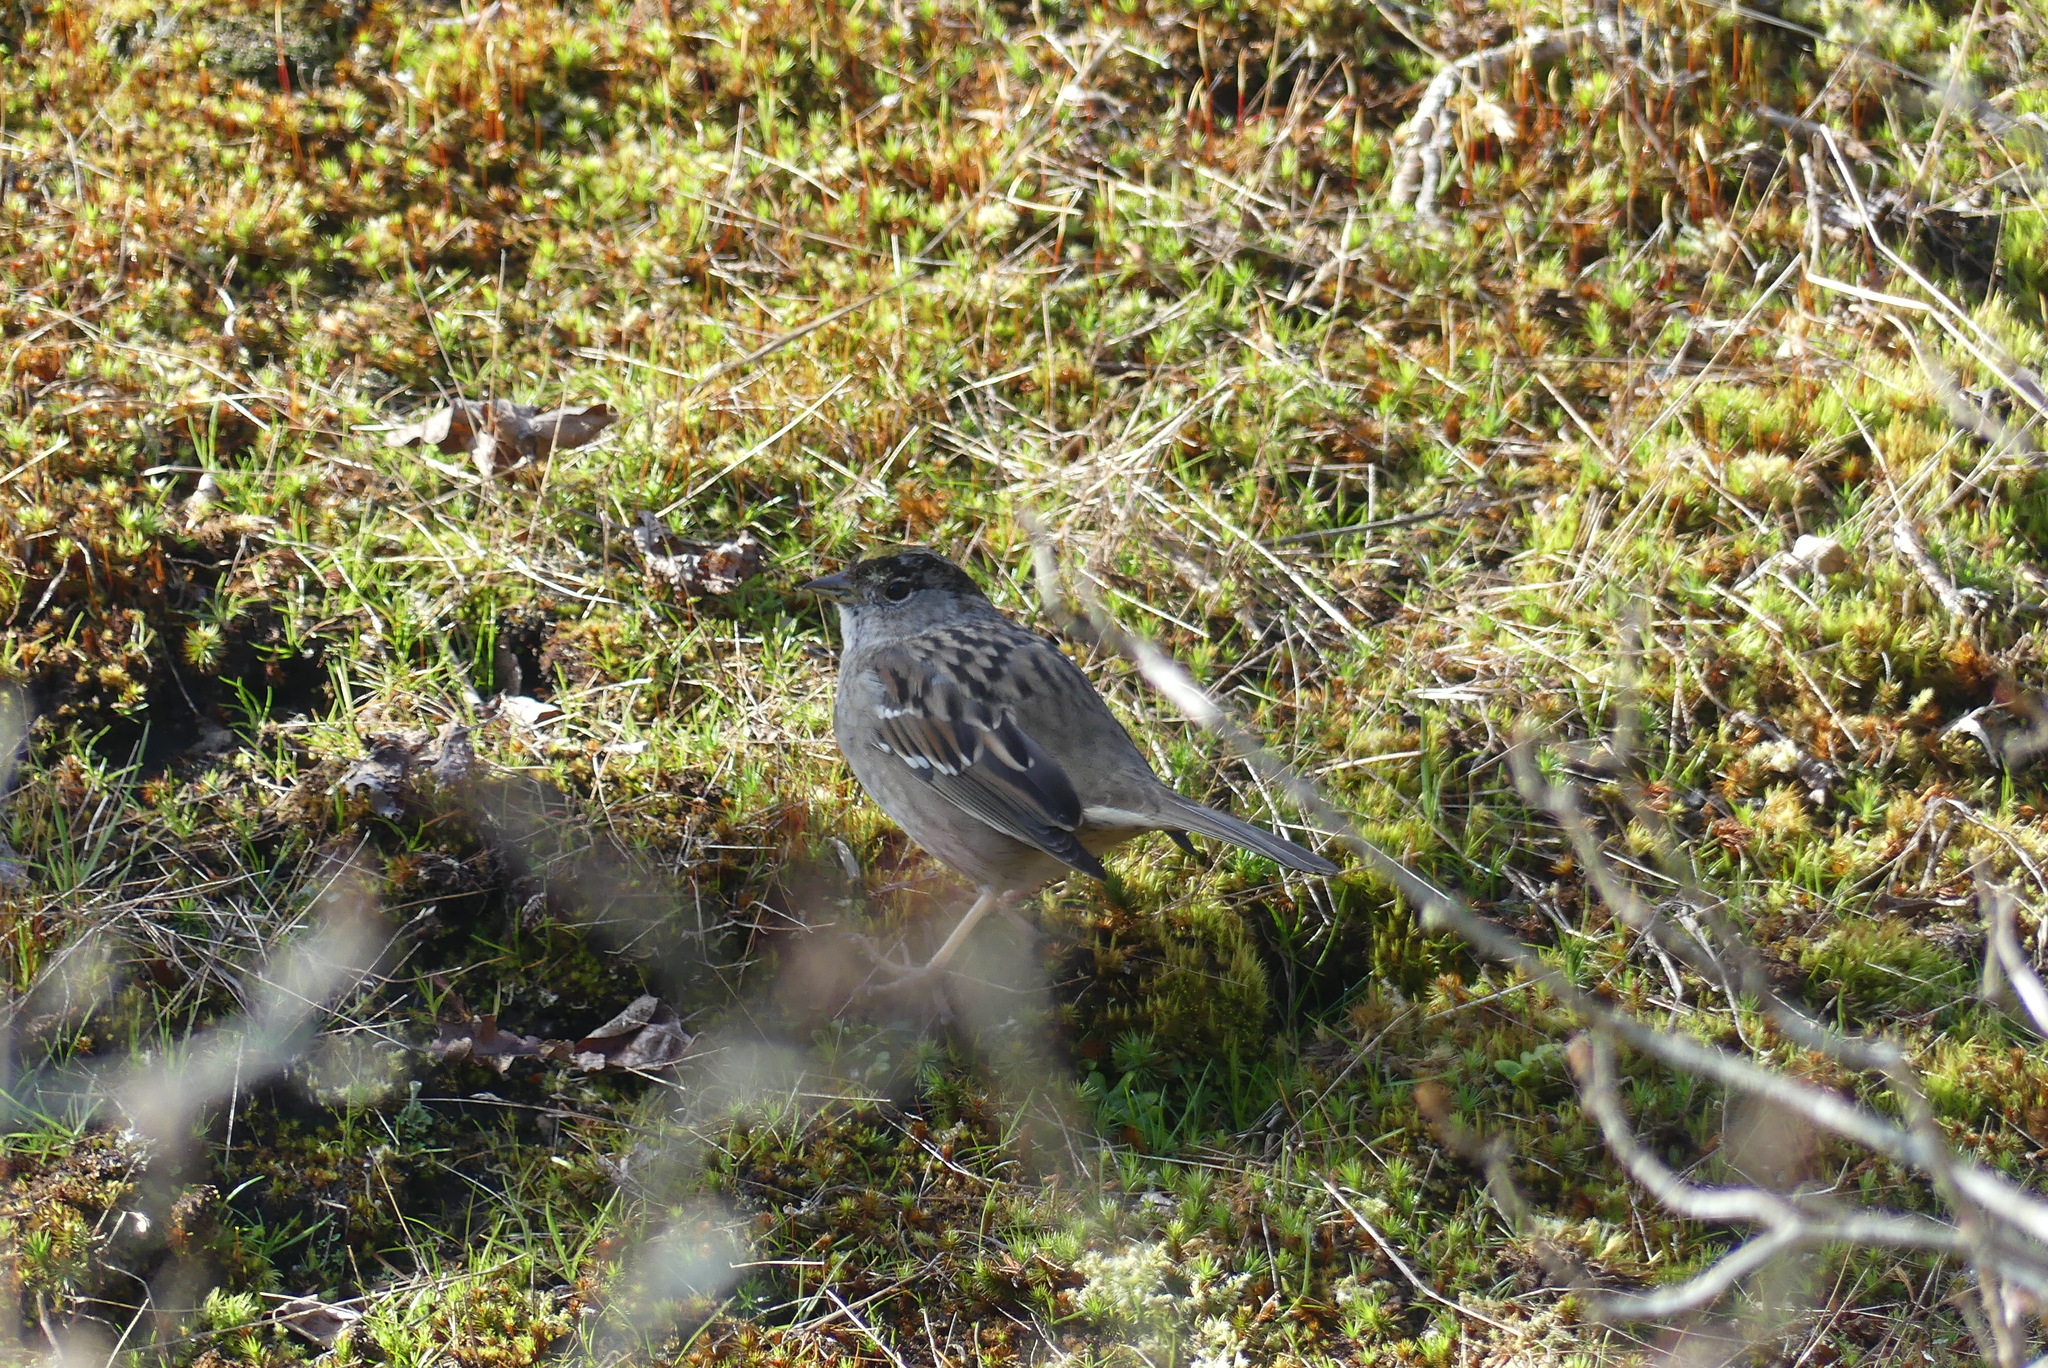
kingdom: Animalia
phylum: Chordata
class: Aves
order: Passeriformes
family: Passerellidae
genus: Zonotrichia
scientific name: Zonotrichia atricapilla
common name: Golden-crowned sparrow
